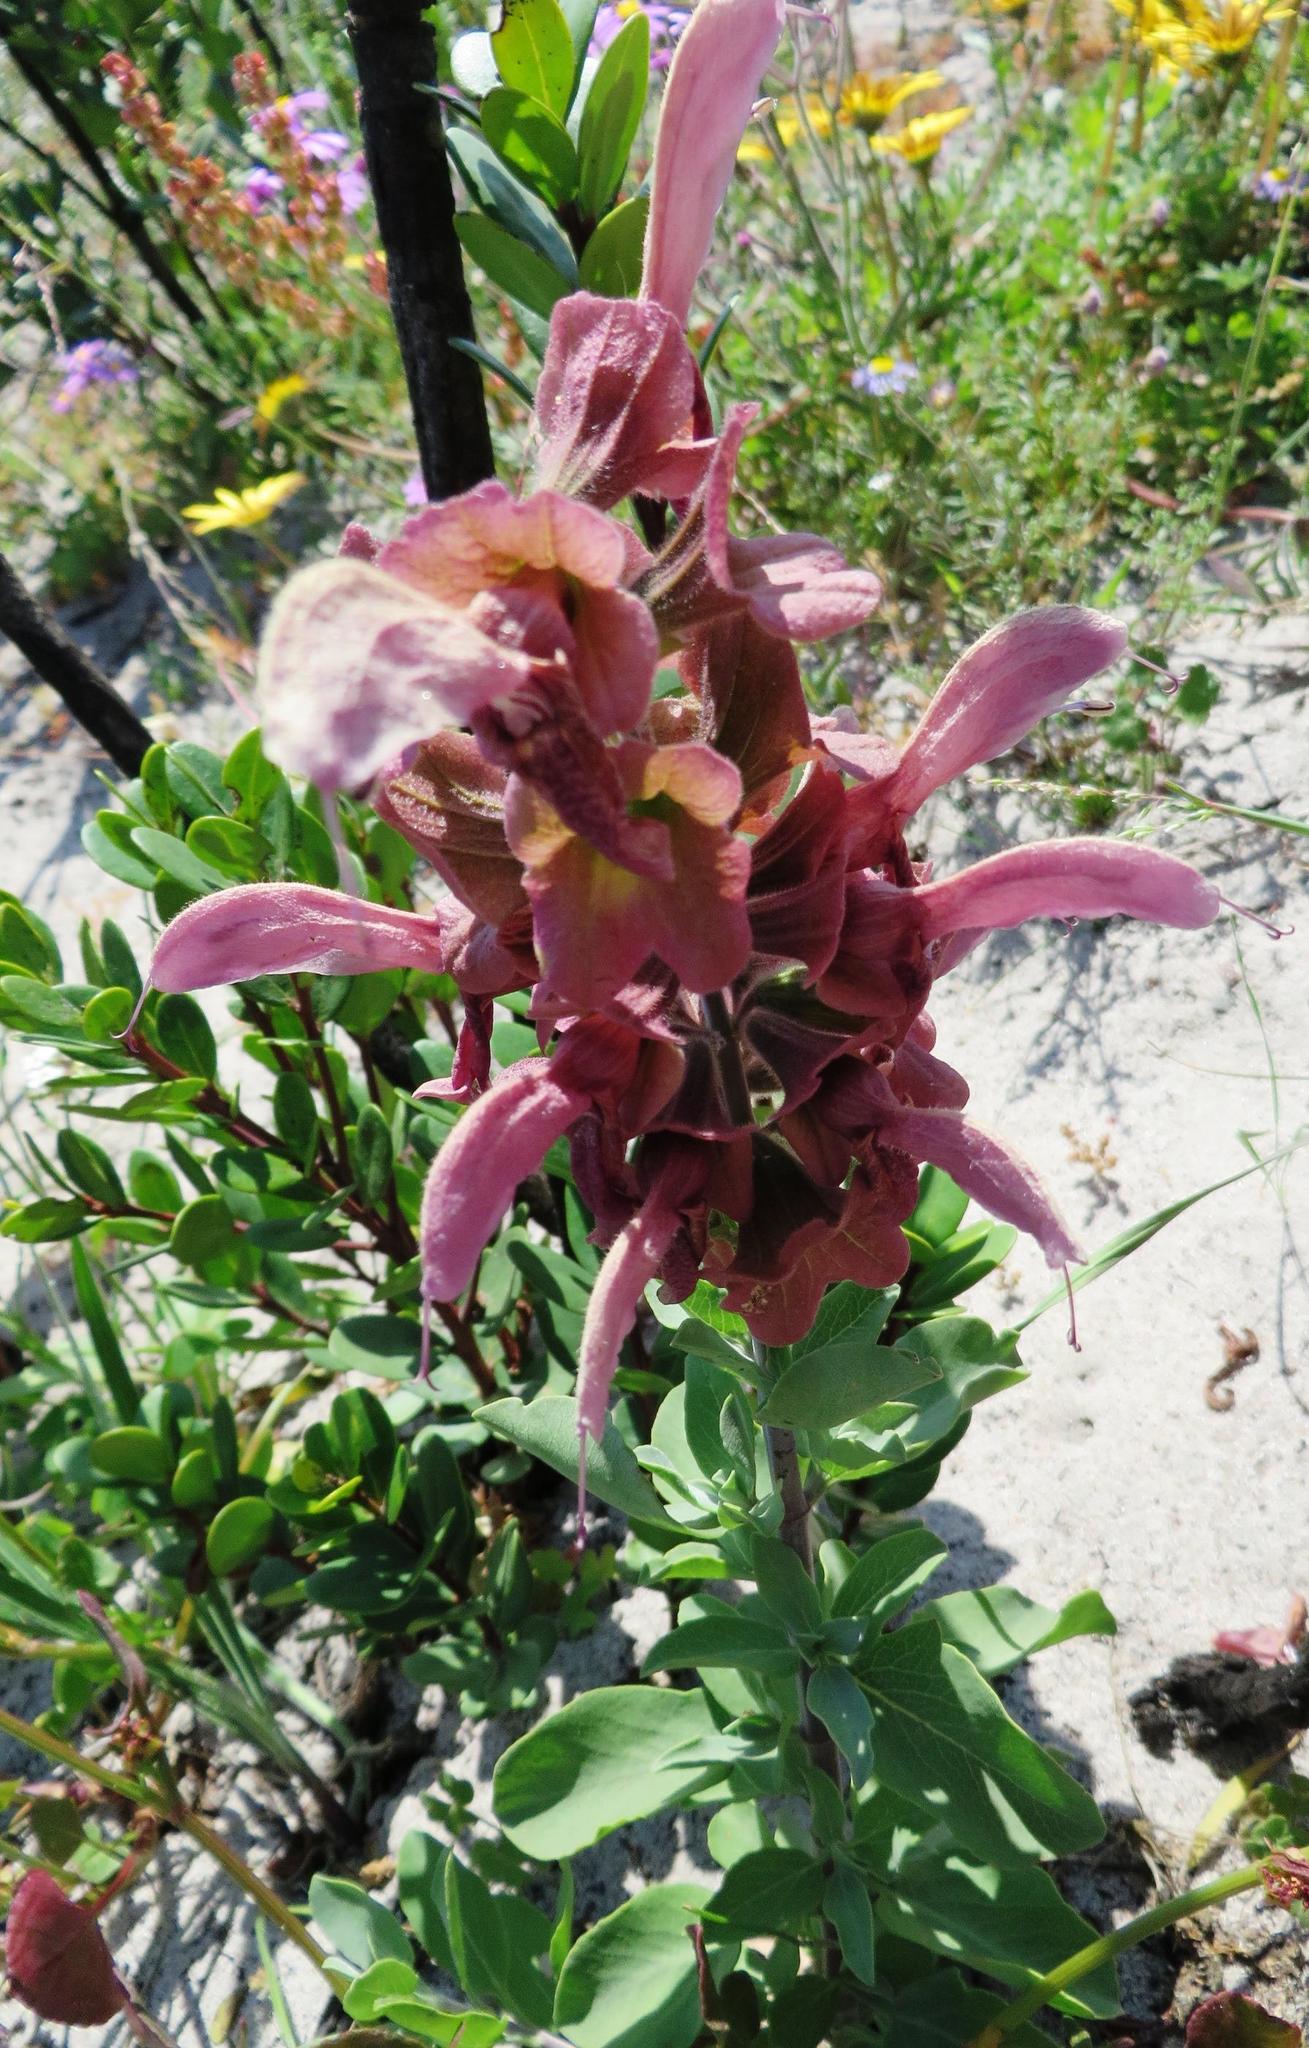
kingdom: Plantae
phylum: Tracheophyta
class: Magnoliopsida
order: Lamiales
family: Lamiaceae
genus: Salvia
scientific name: Salvia lanceolata
